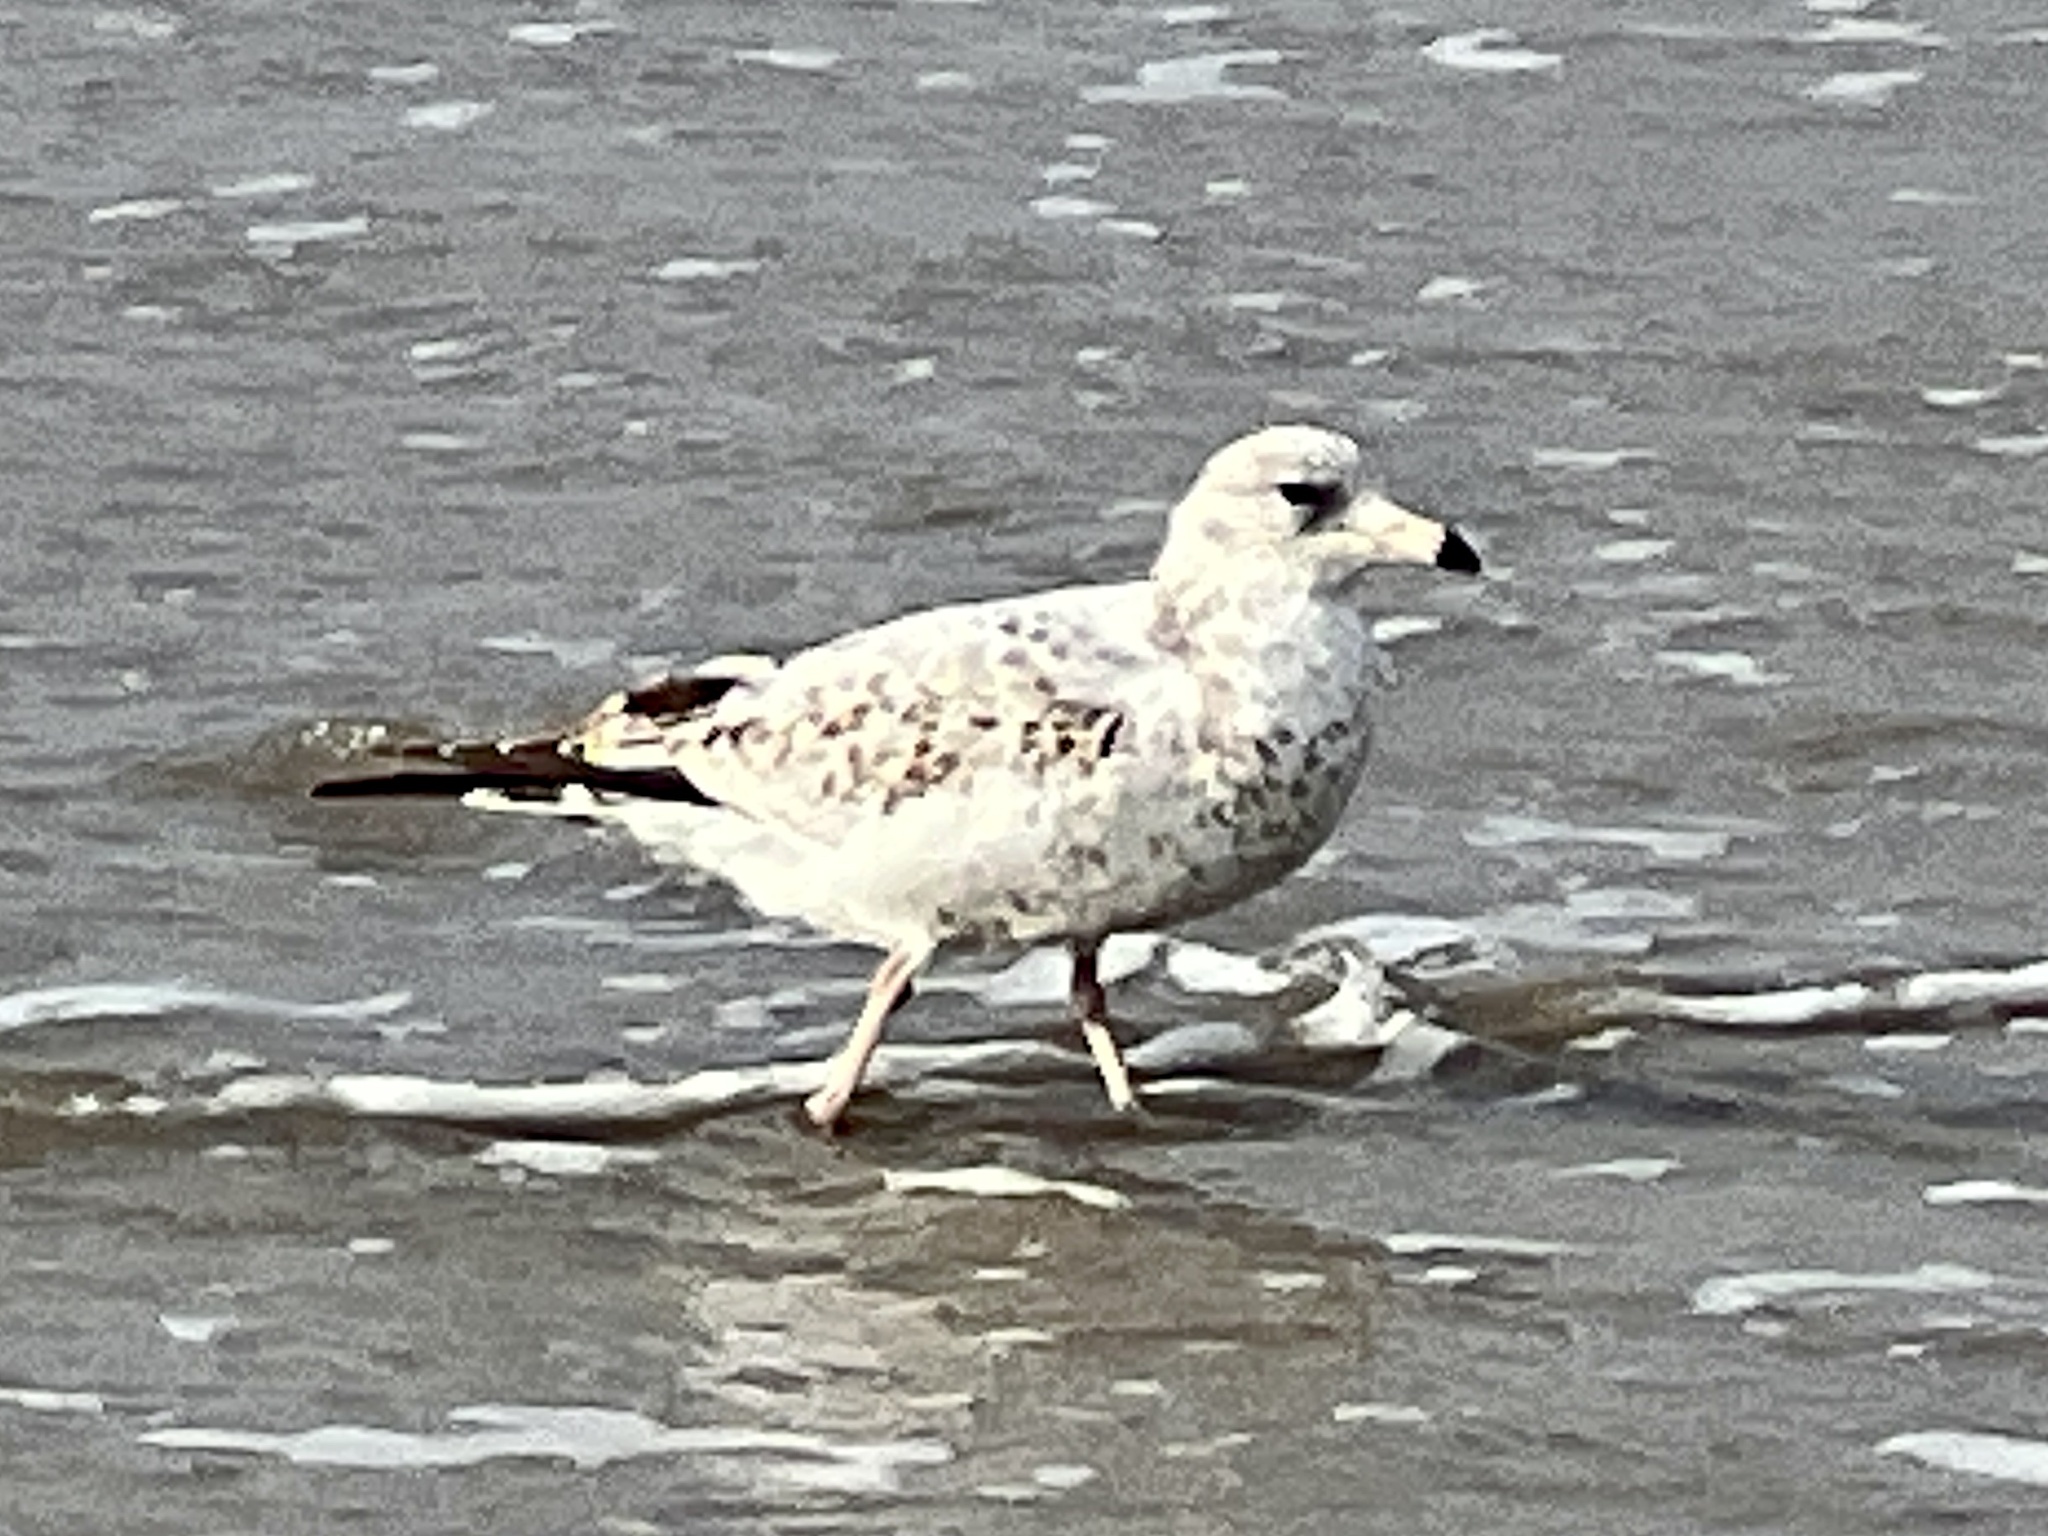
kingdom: Animalia
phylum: Chordata
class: Aves
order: Charadriiformes
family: Laridae
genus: Larus
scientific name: Larus delawarensis
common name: Ring-billed gull
